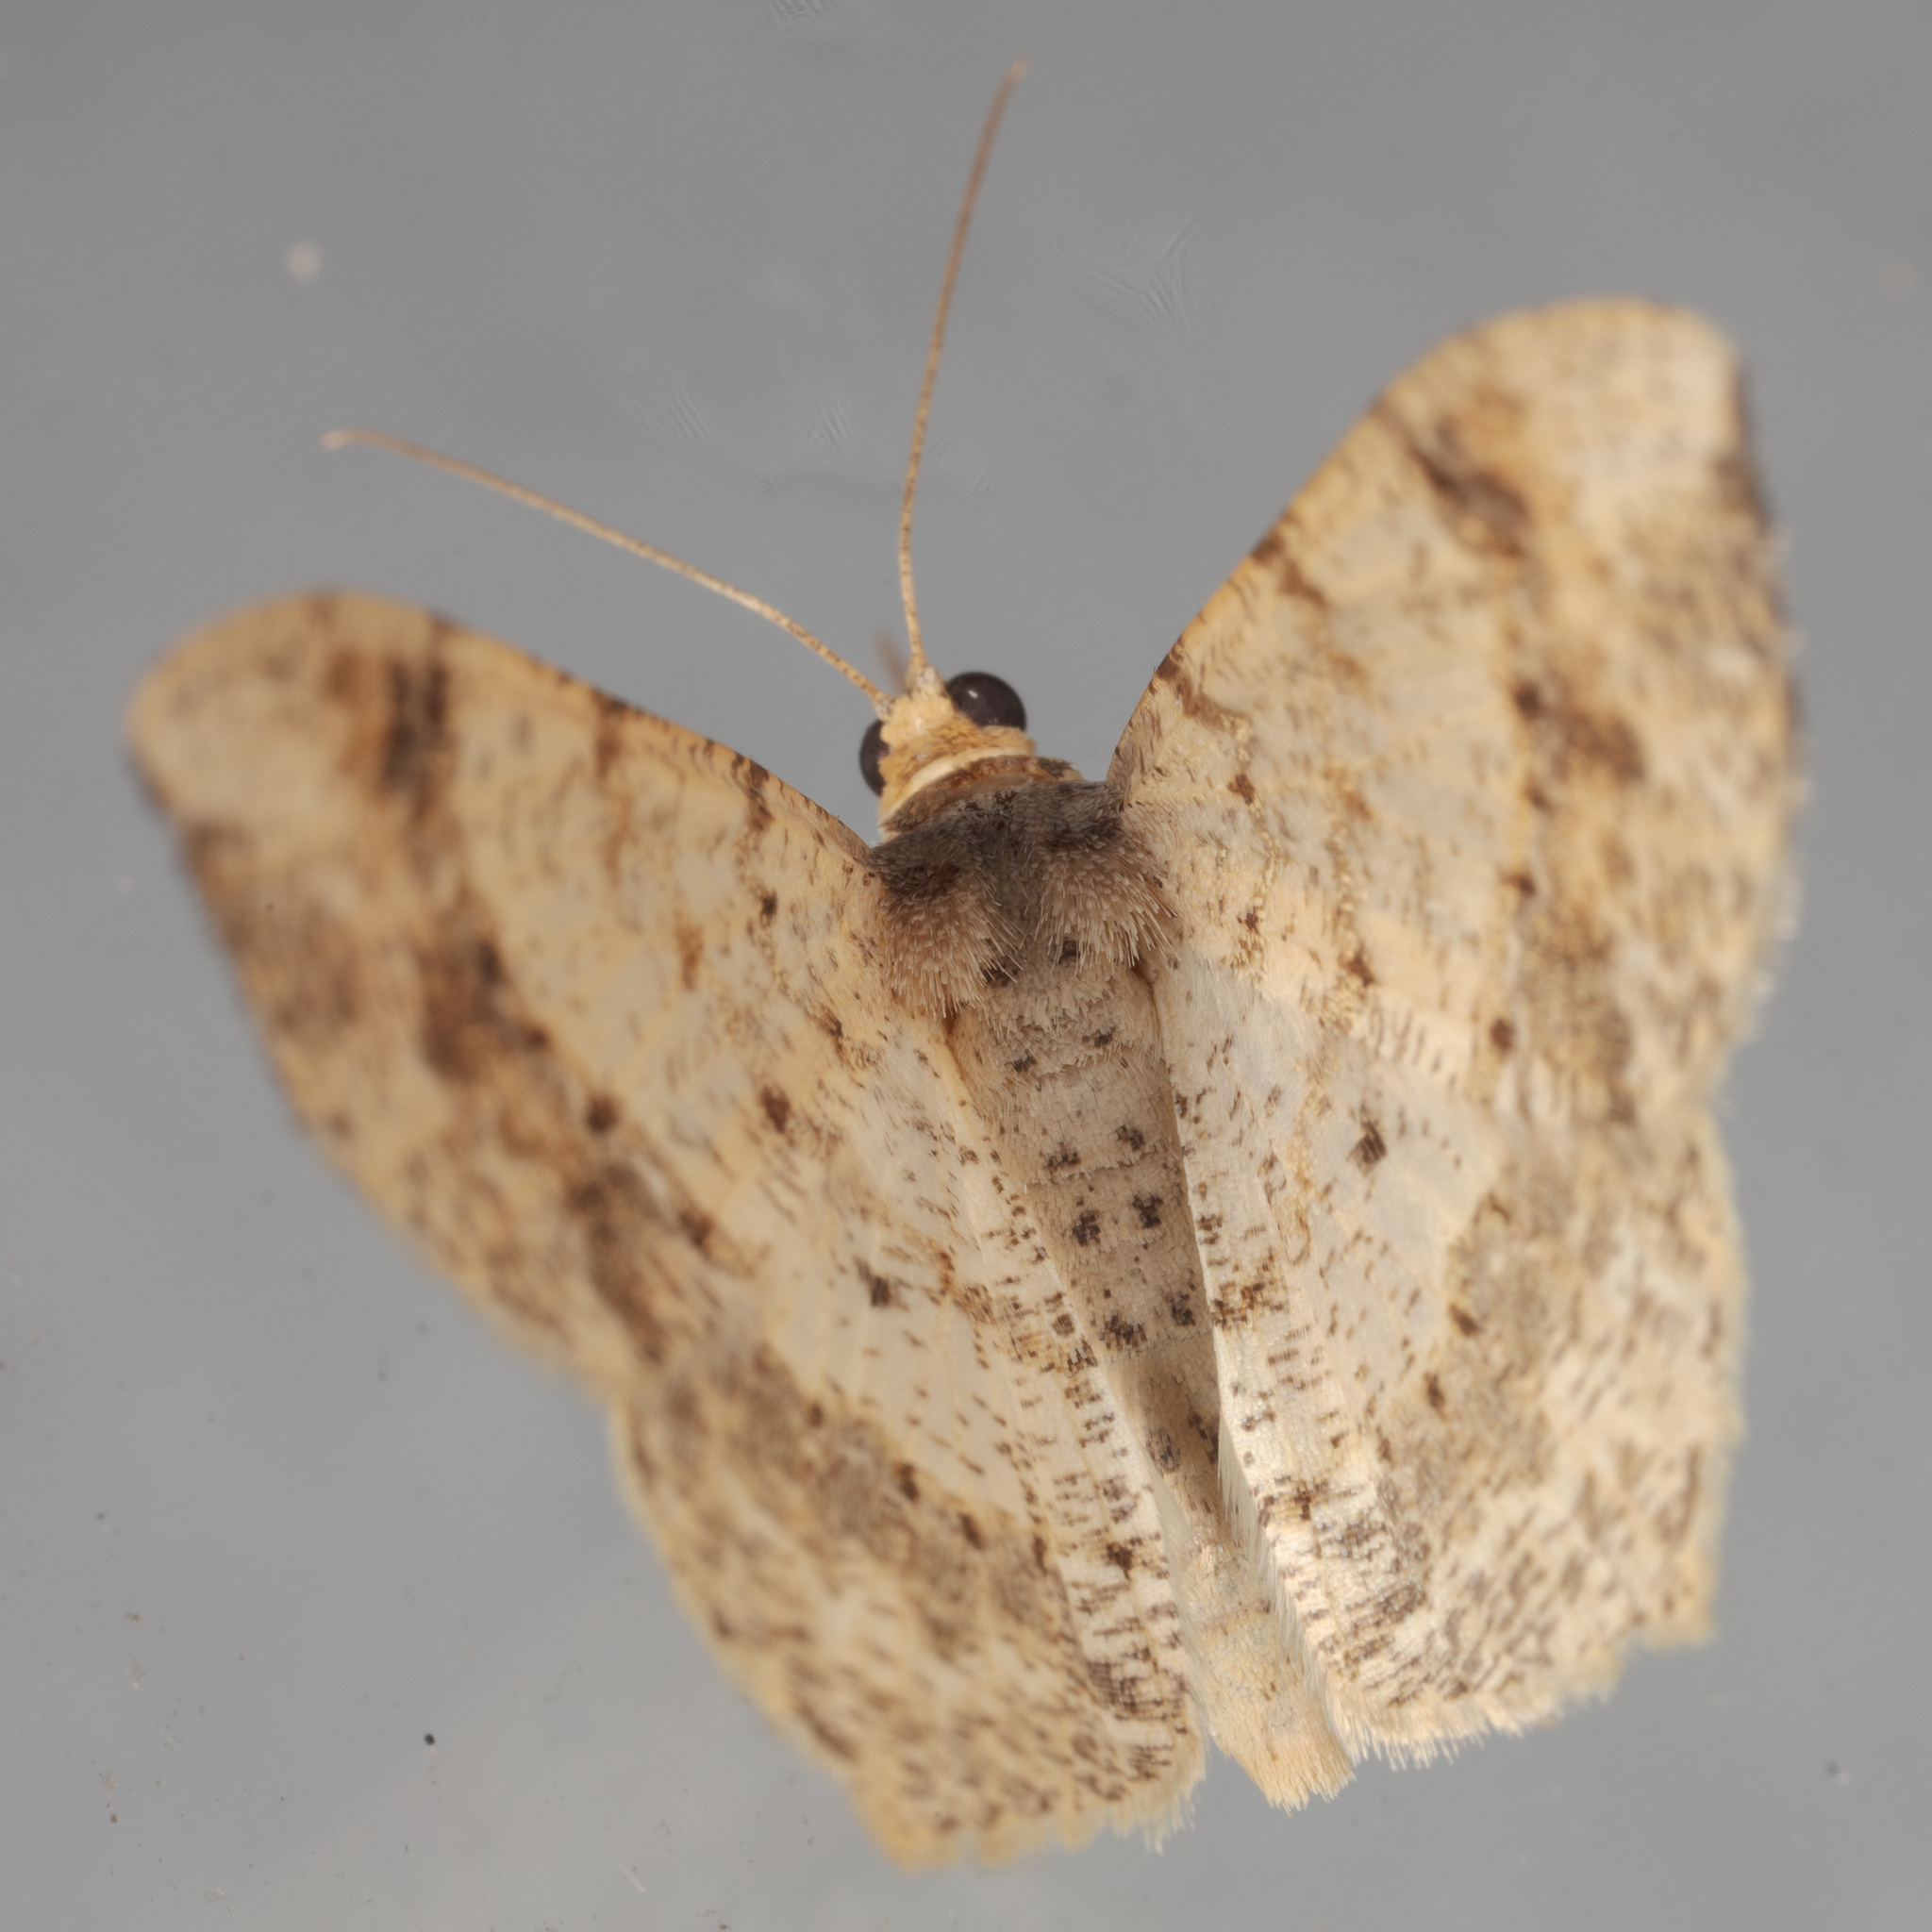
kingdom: Animalia
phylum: Arthropoda
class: Insecta
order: Lepidoptera
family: Geometridae
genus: Macaria
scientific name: Macaria abydata
